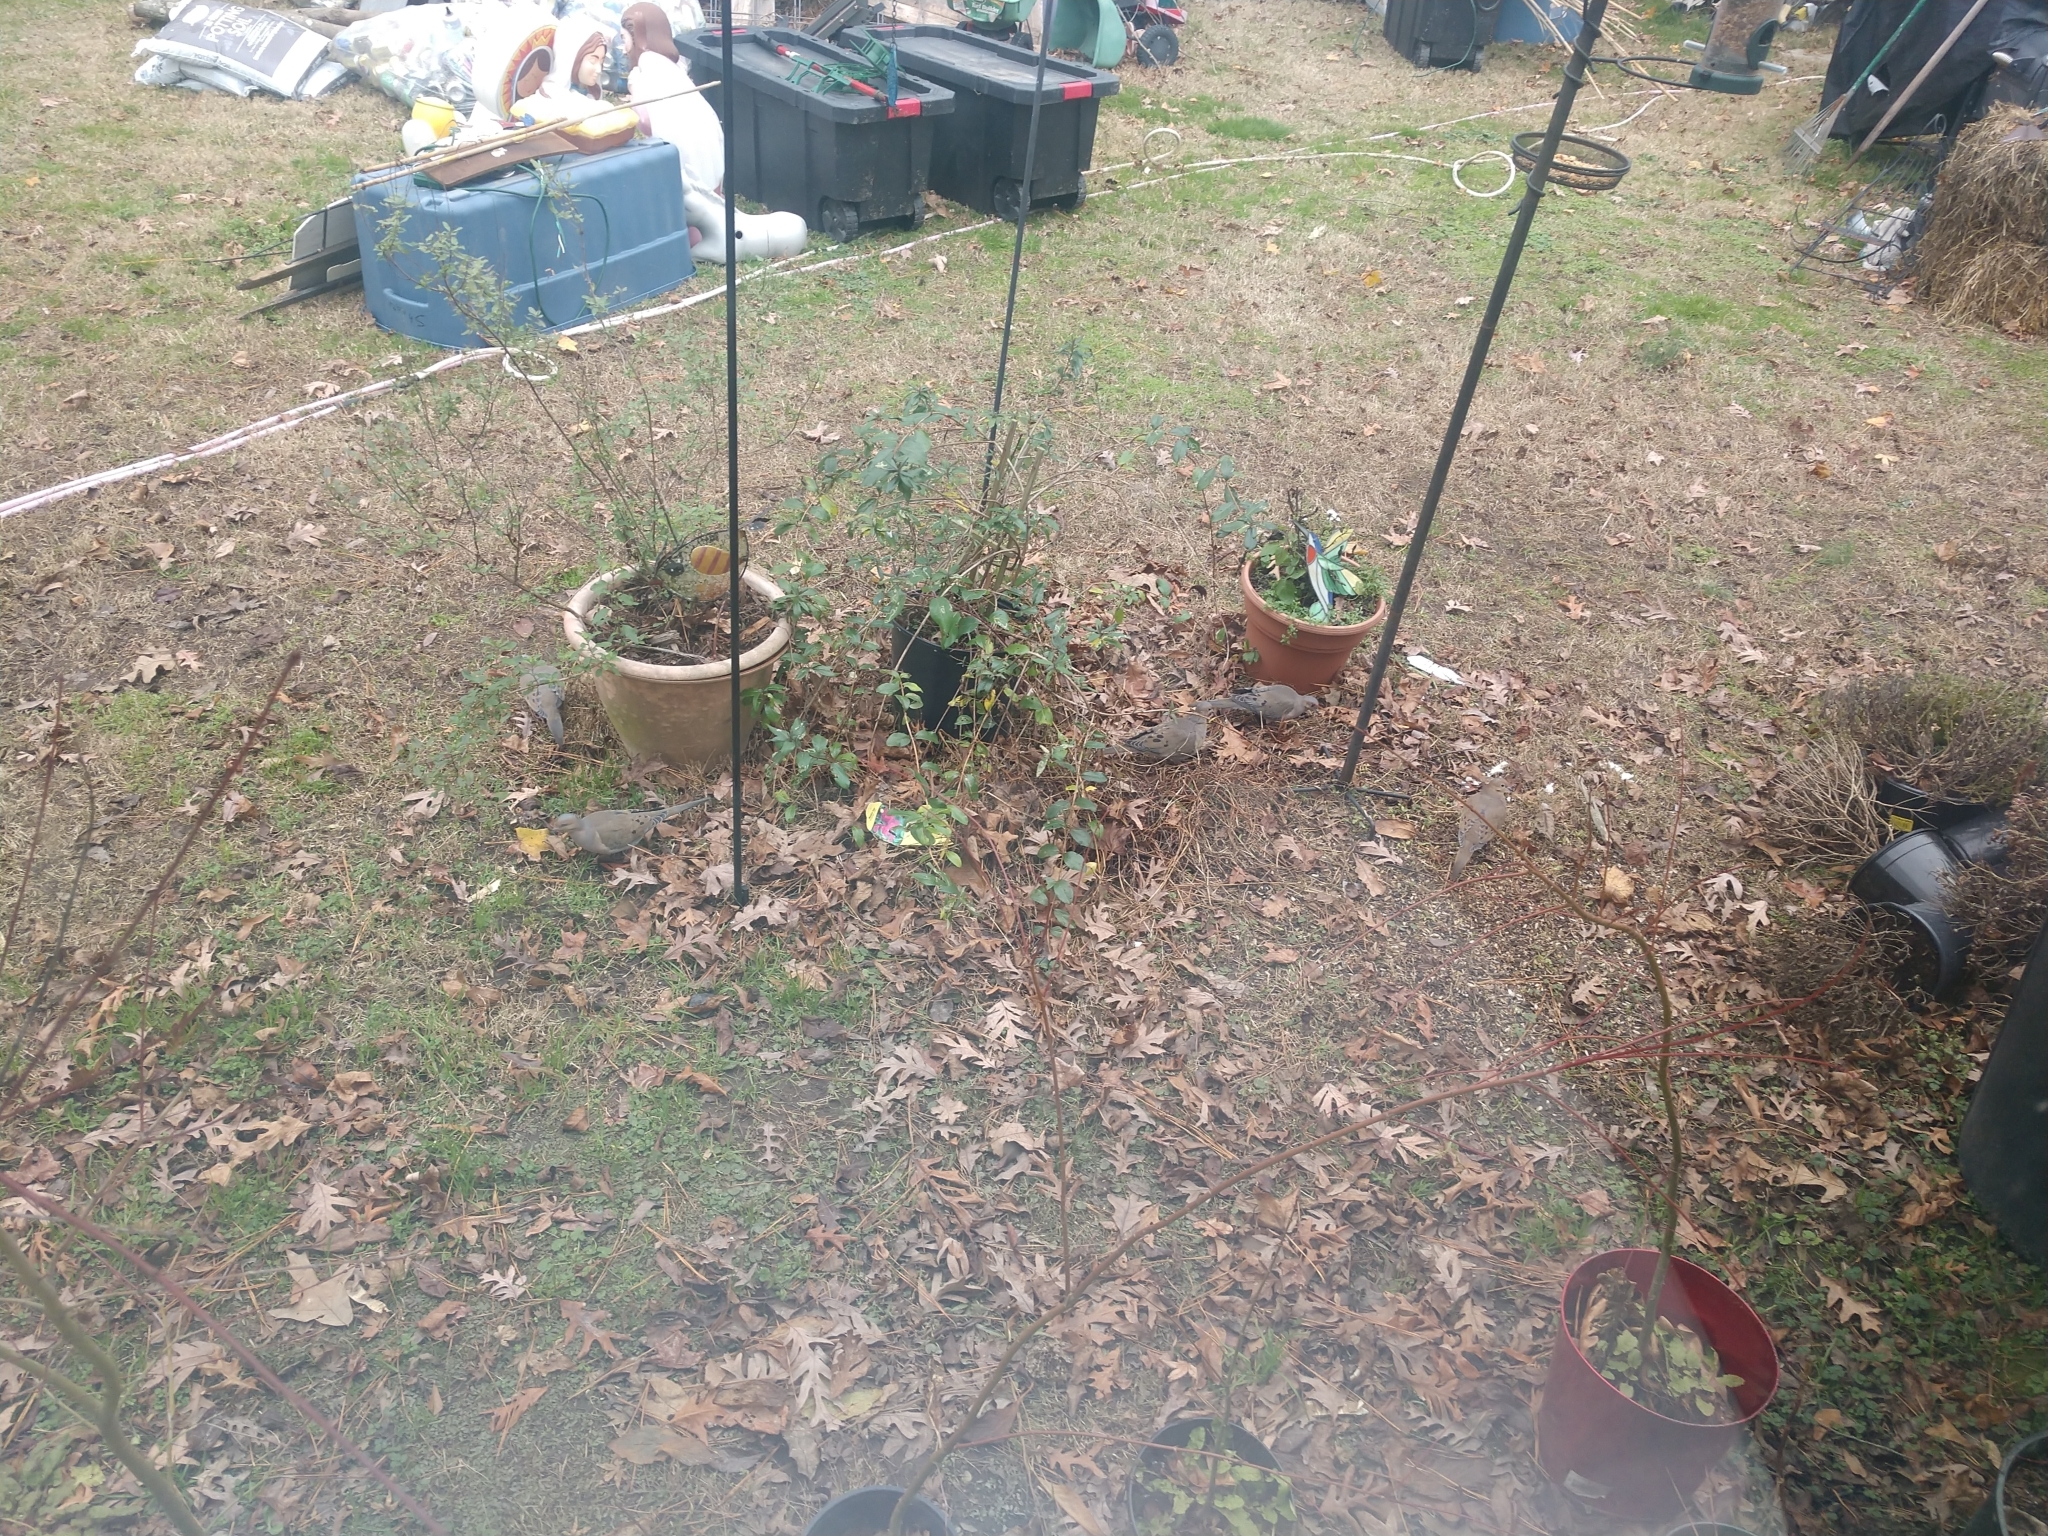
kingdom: Animalia
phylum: Chordata
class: Aves
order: Columbiformes
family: Columbidae
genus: Zenaida
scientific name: Zenaida macroura
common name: Mourning dove
